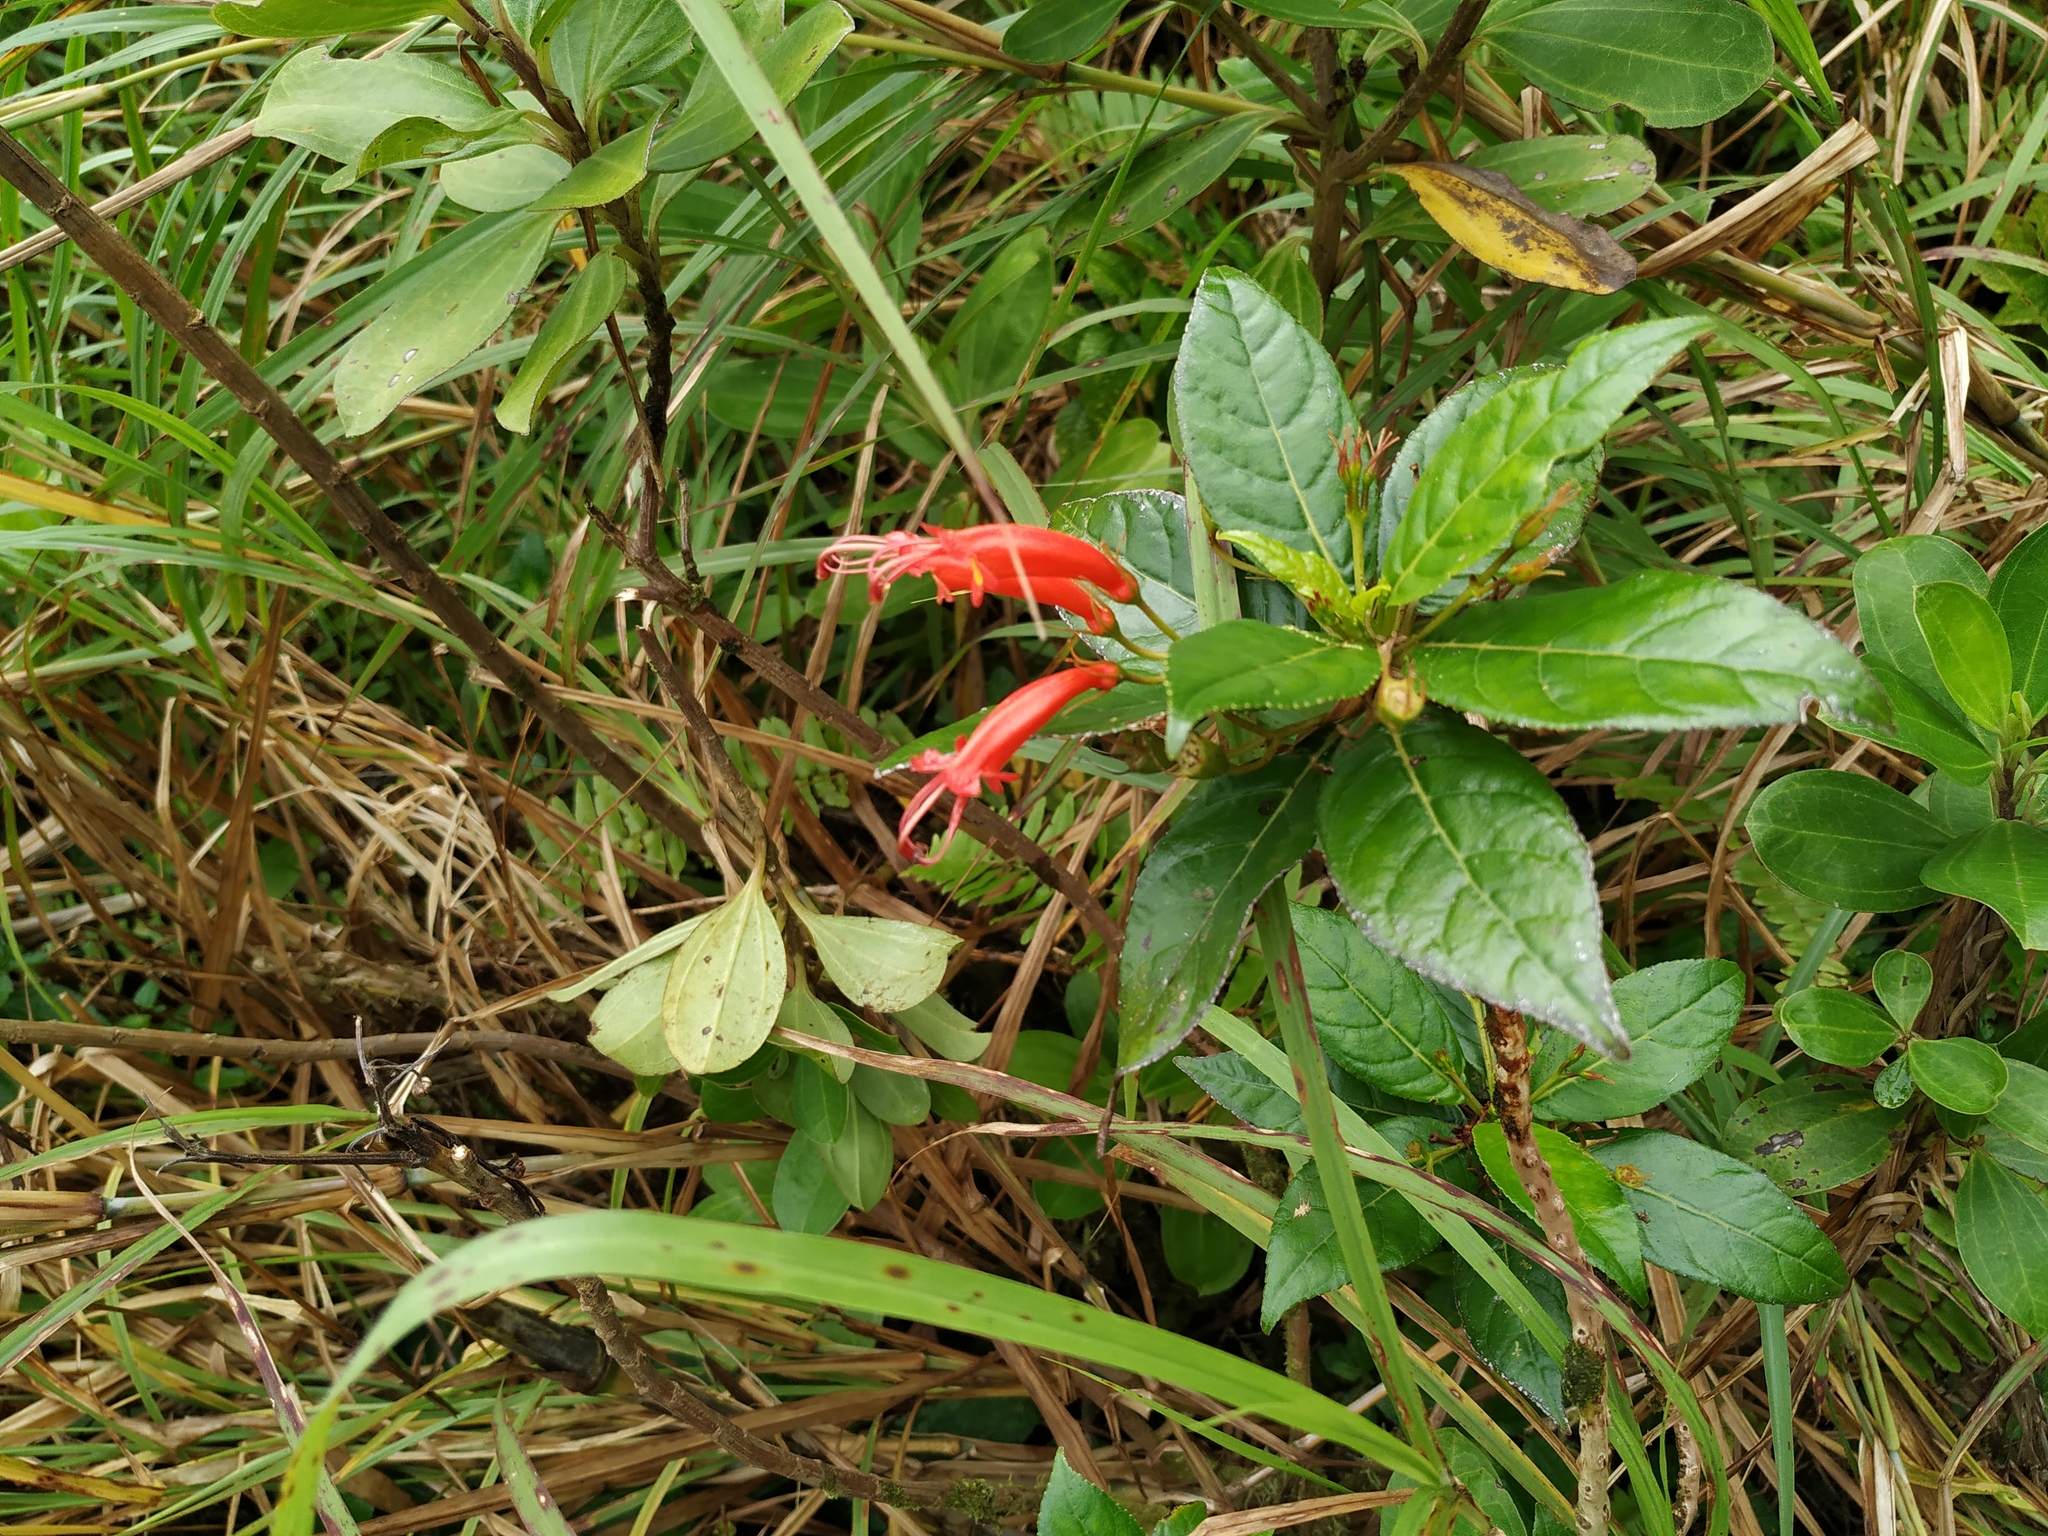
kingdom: Plantae
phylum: Tracheophyta
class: Magnoliopsida
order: Lamiales
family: Gesneriaceae
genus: Gesneria
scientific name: Gesneria ventricosa
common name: Dare meat
